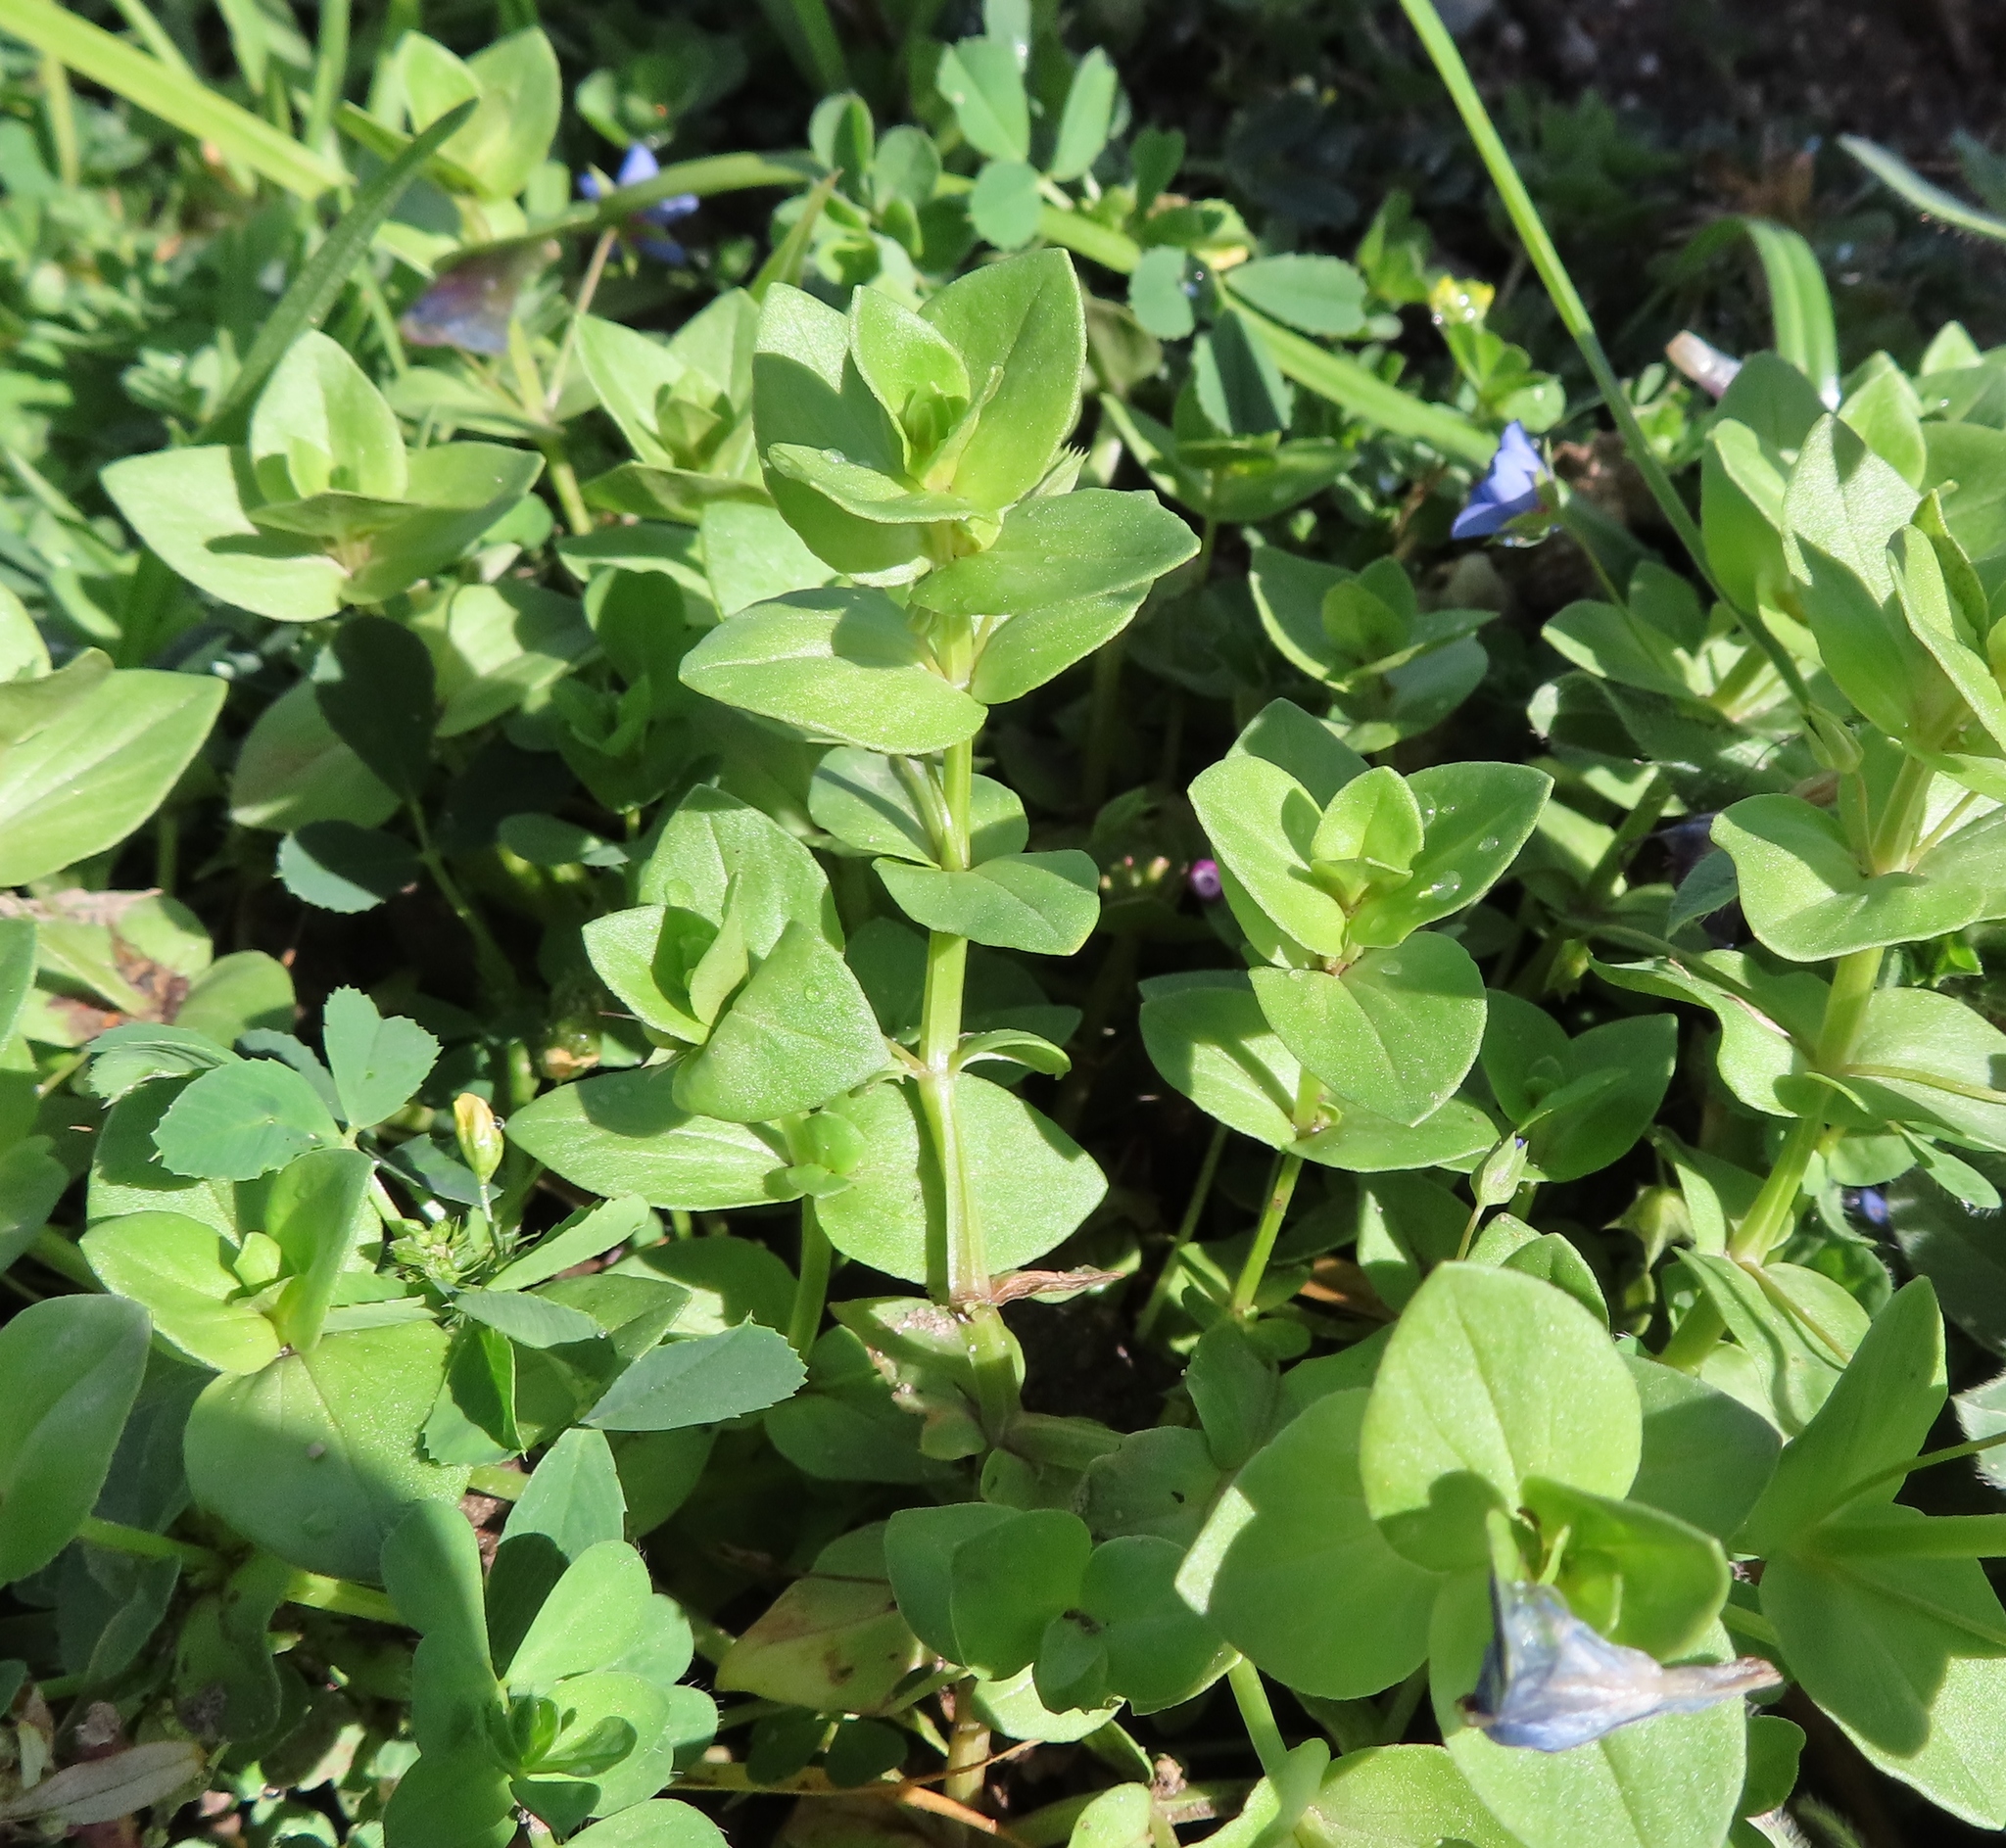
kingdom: Plantae
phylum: Tracheophyta
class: Magnoliopsida
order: Ericales
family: Primulaceae
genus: Lysimachia
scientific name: Lysimachia loeflingii
